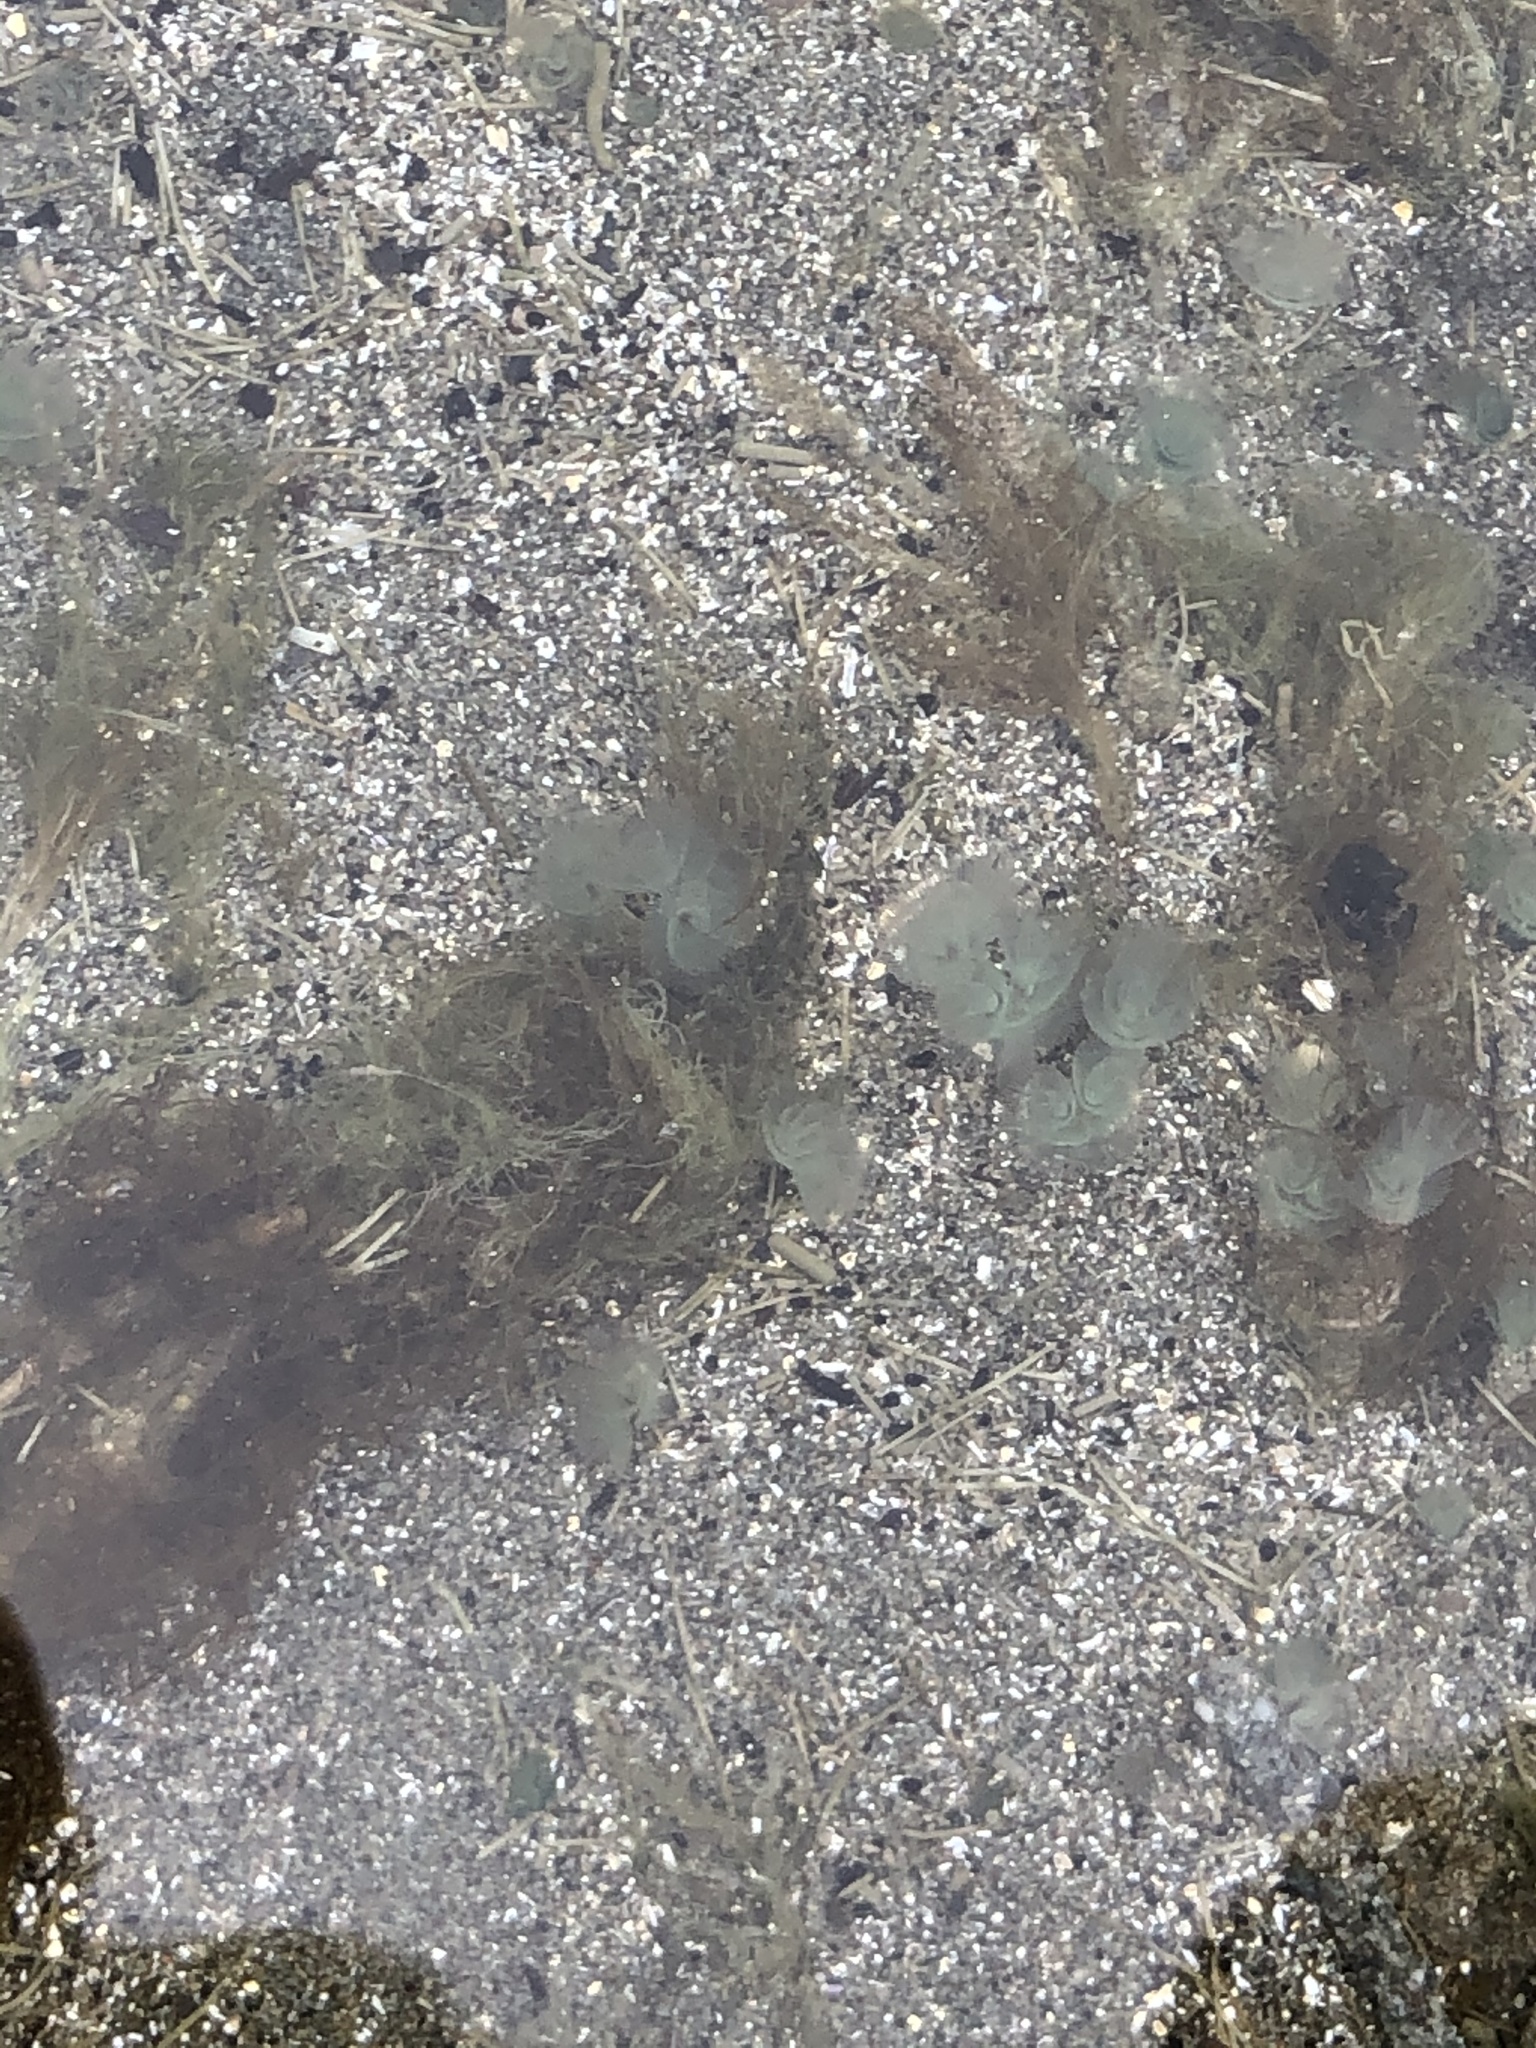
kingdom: Animalia
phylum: Phoronida
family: Phoronidae
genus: Phoronopsis
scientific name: Phoronopsis harmeri
